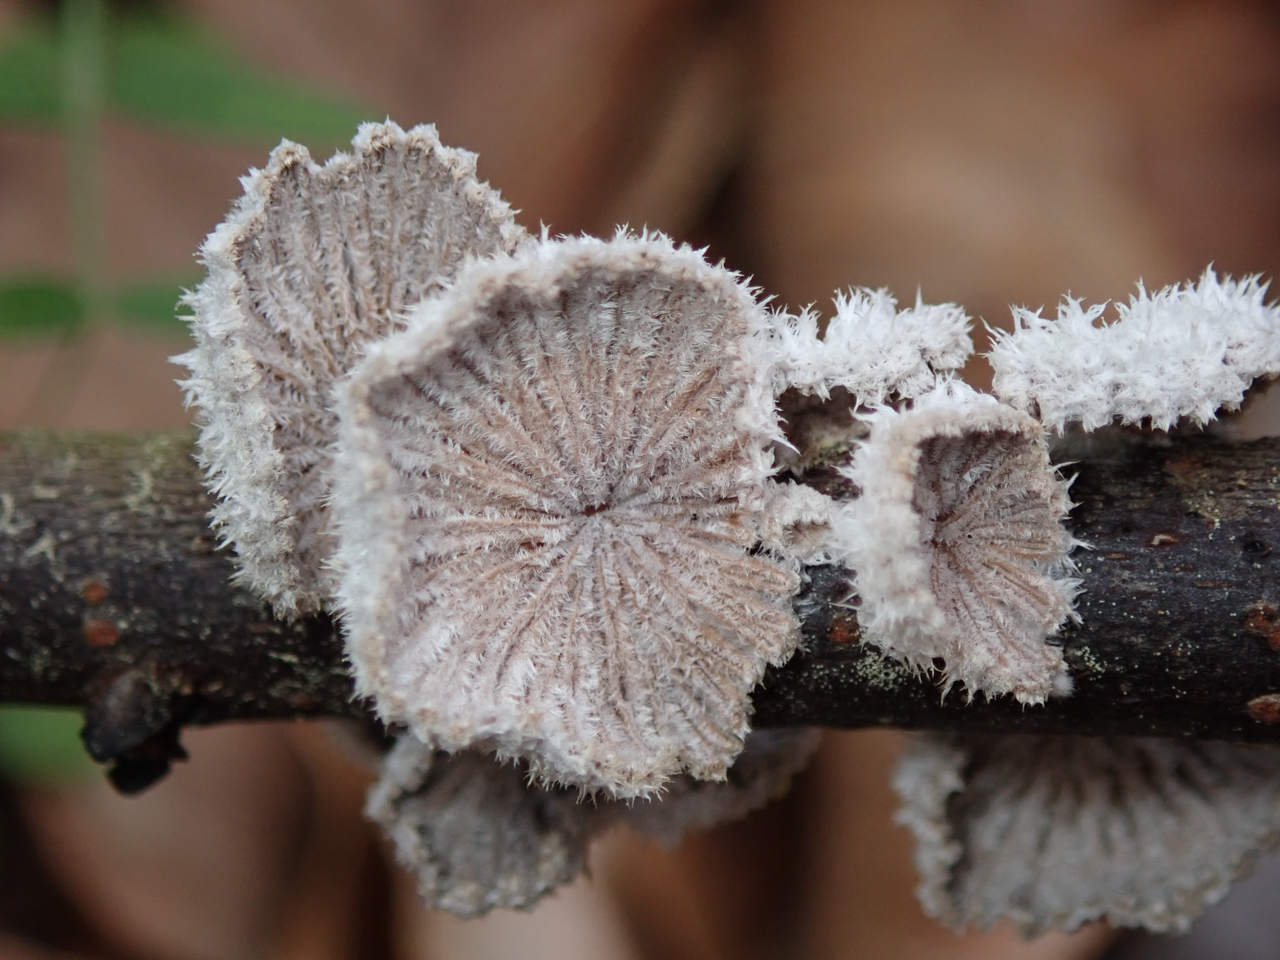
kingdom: Fungi
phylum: Basidiomycota
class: Agaricomycetes
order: Agaricales
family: Schizophyllaceae
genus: Schizophyllum
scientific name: Schizophyllum commune
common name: Common porecrust
